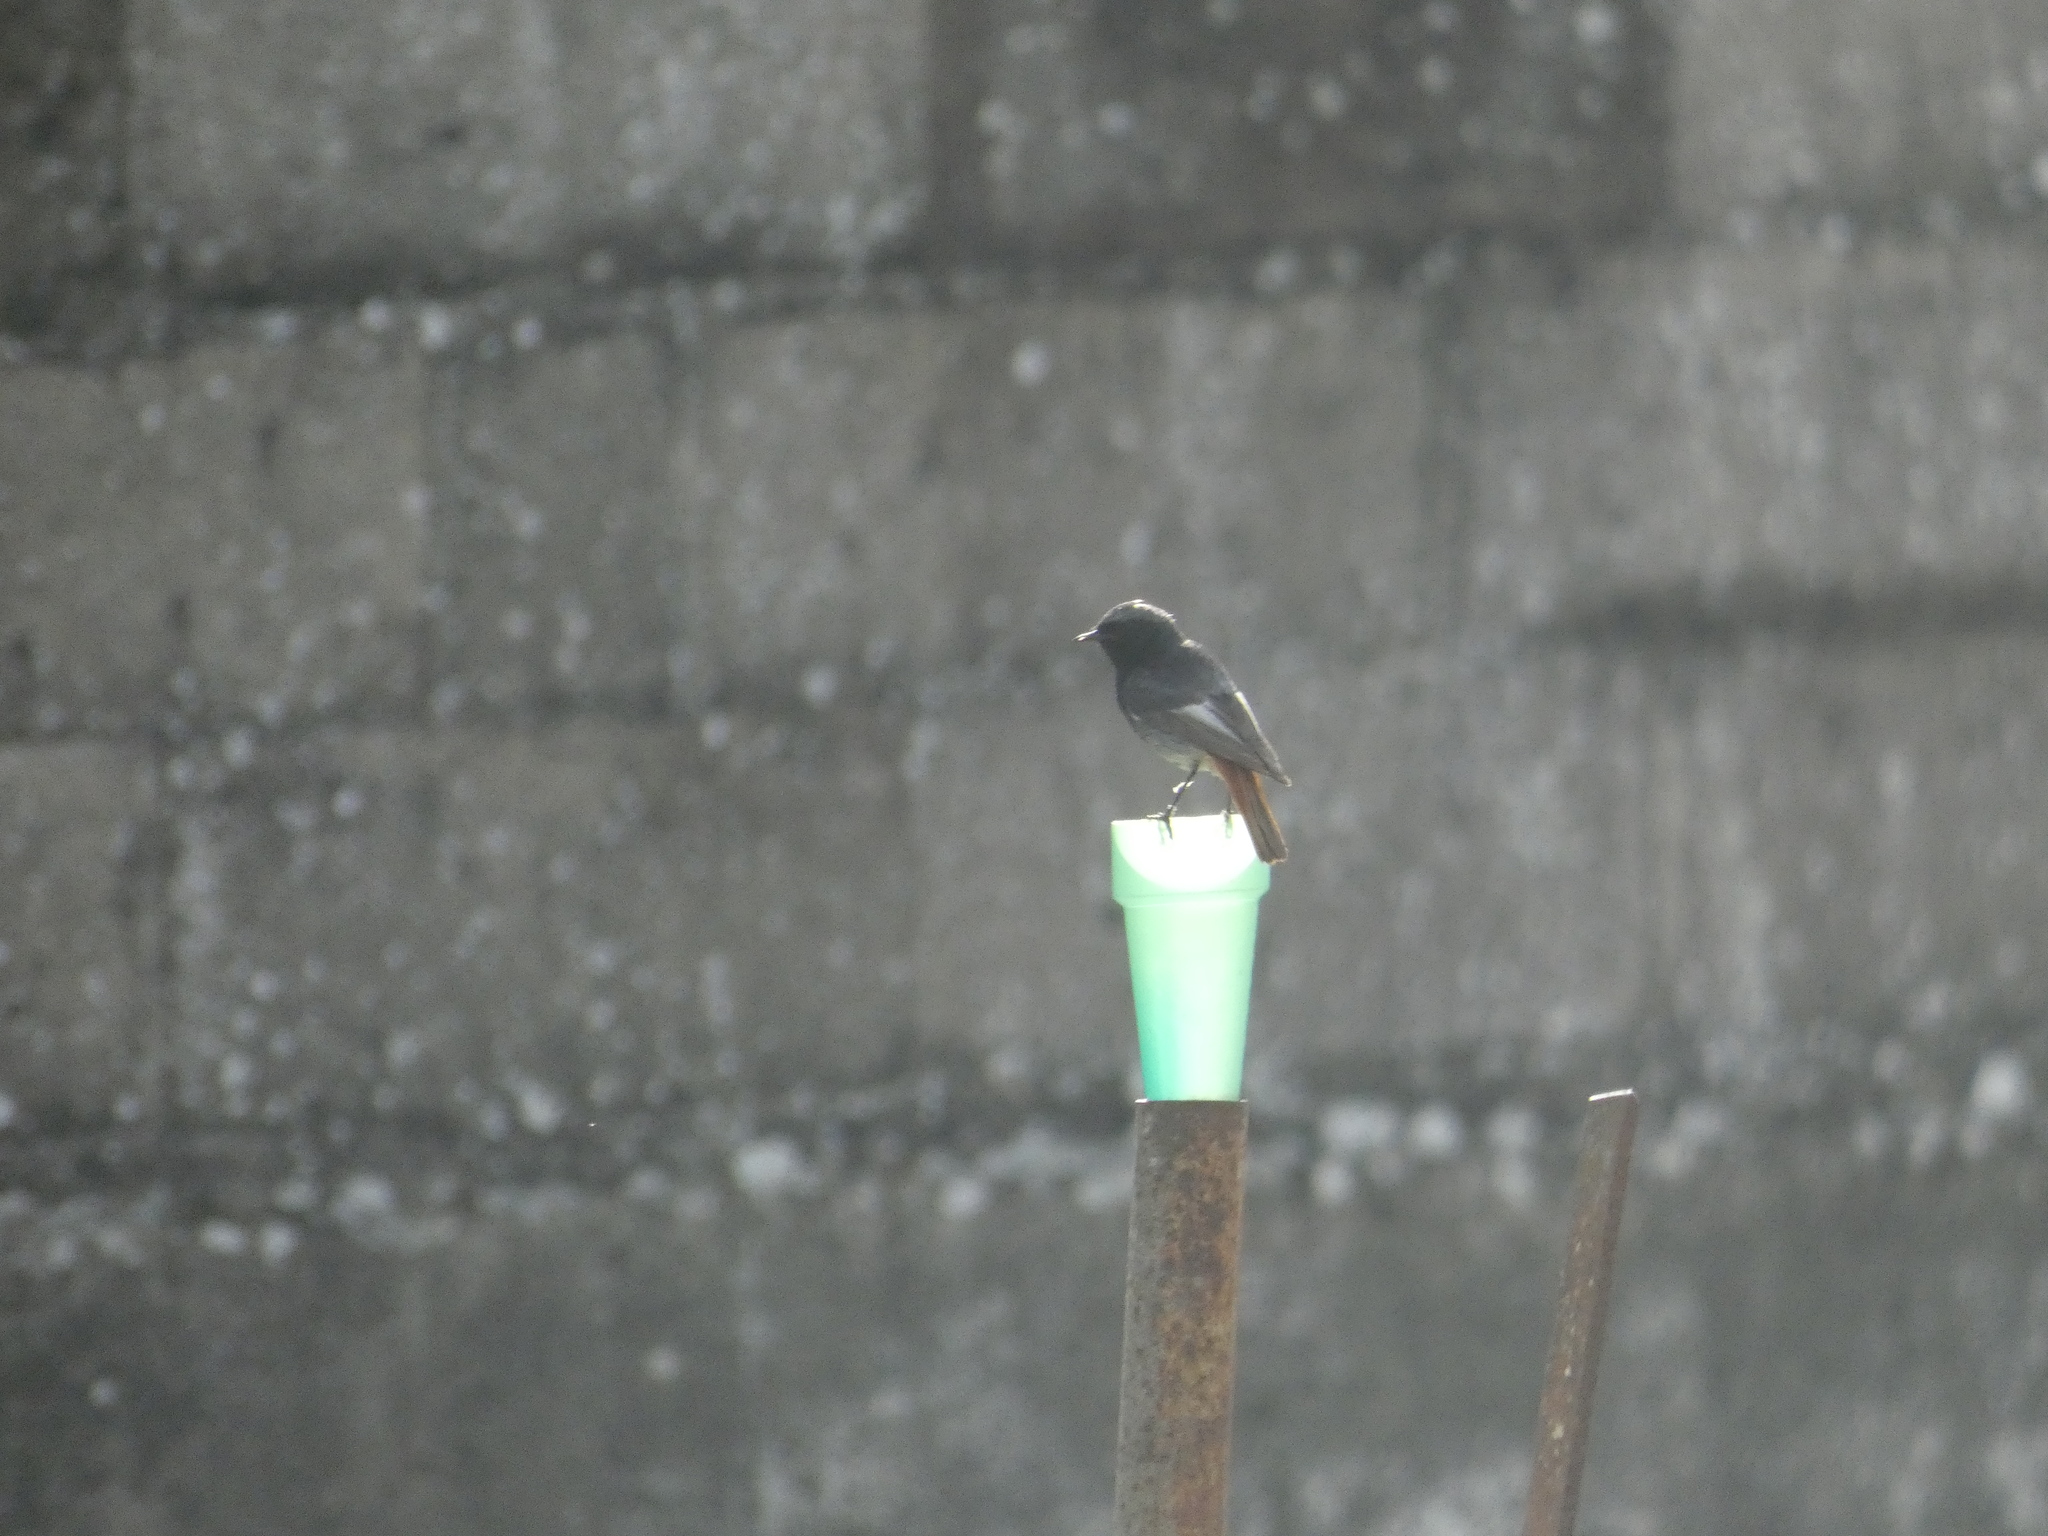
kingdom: Animalia
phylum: Chordata
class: Aves
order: Passeriformes
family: Muscicapidae
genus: Phoenicurus
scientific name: Phoenicurus ochruros
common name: Black redstart
